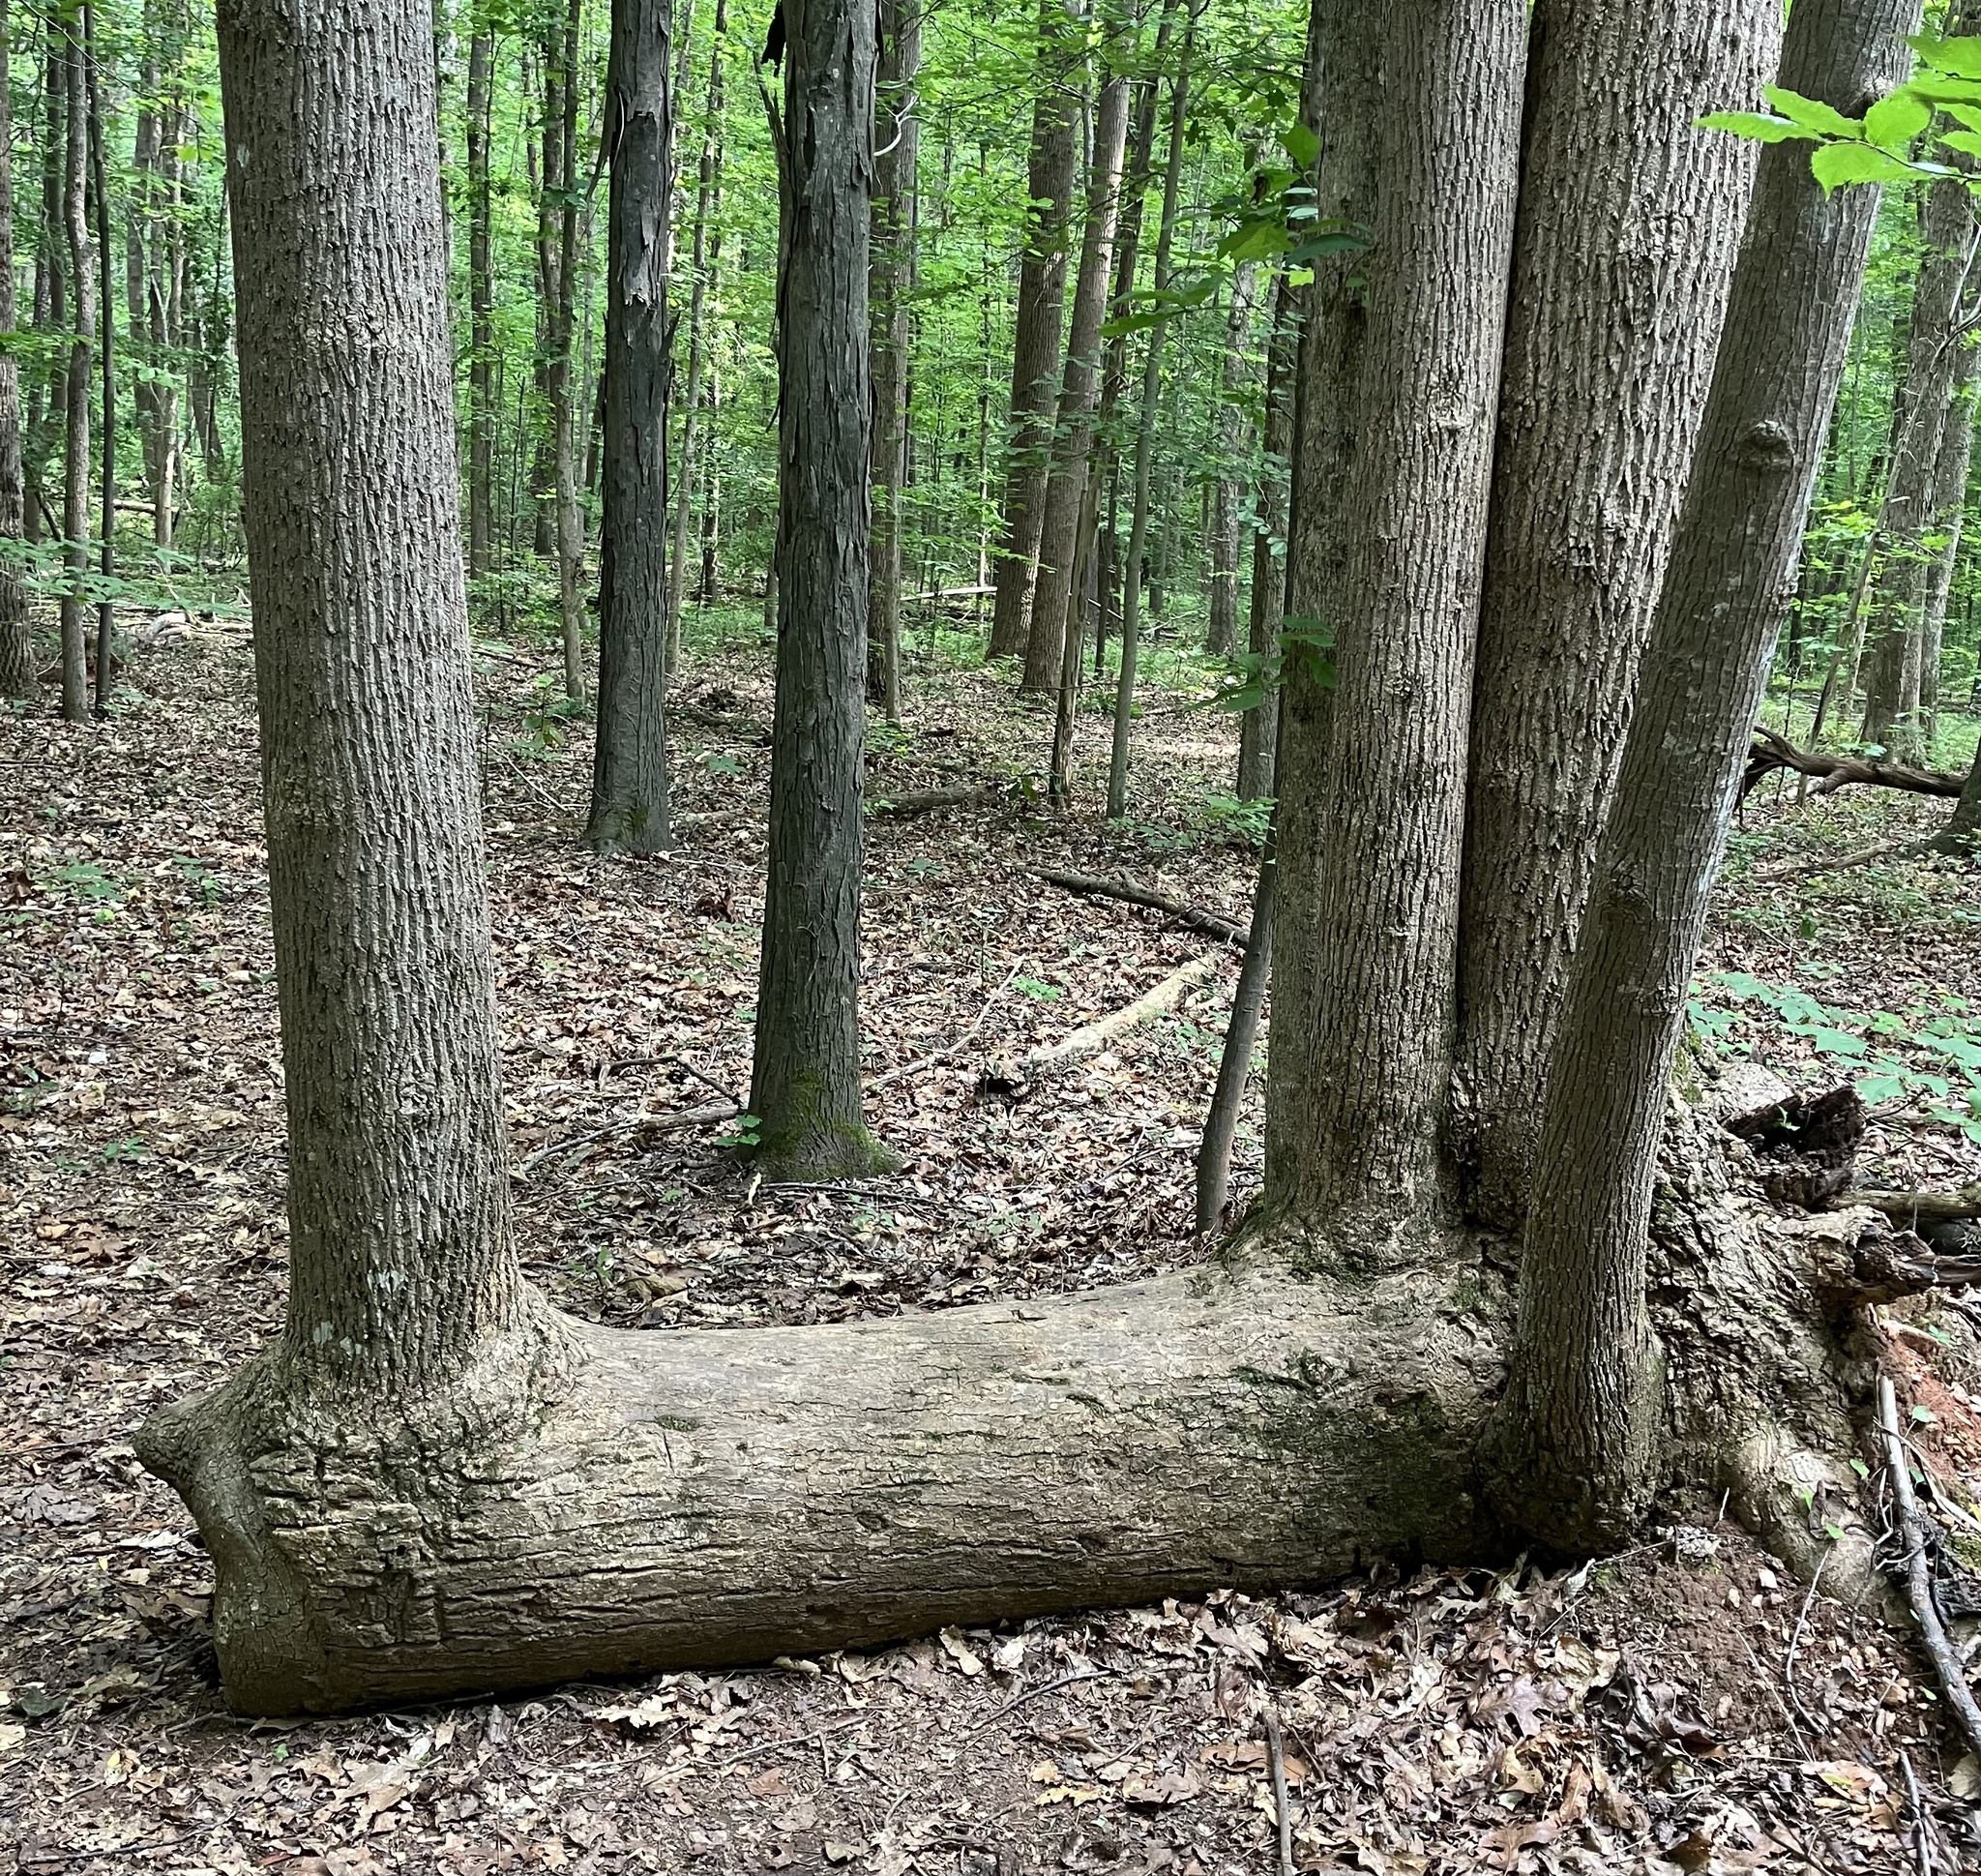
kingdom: Plantae
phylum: Tracheophyta
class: Magnoliopsida
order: Magnoliales
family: Magnoliaceae
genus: Liriodendron
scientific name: Liriodendron tulipifera
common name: Tulip tree
